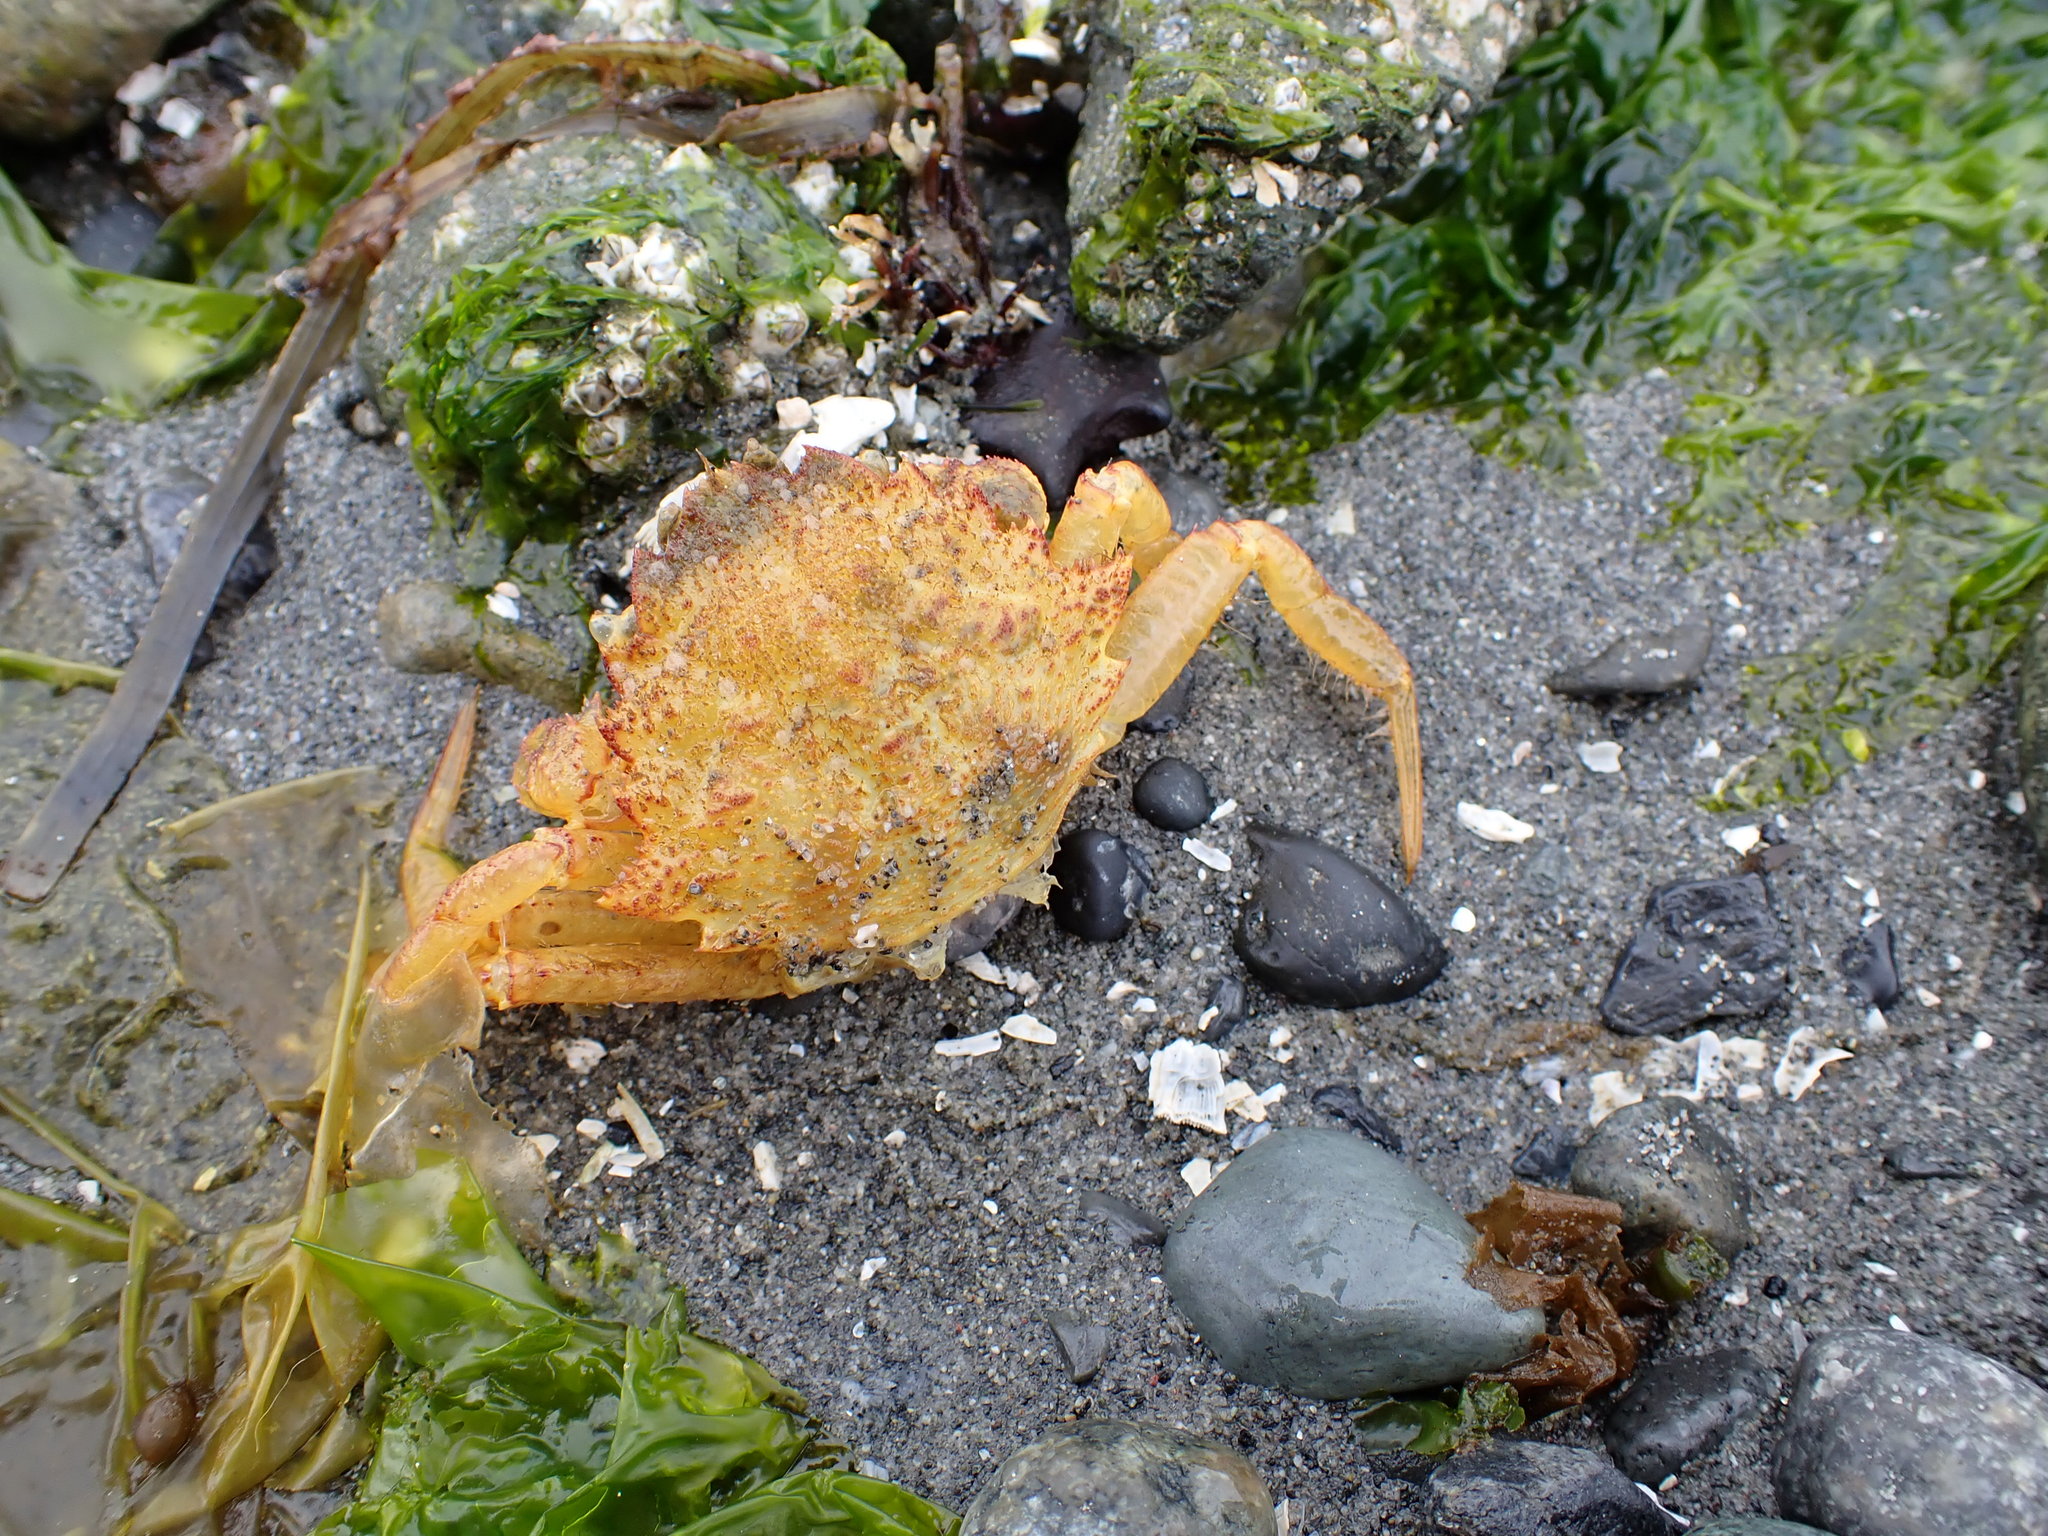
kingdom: Animalia
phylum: Arthropoda
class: Malacostraca
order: Decapoda
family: Cheiragonidae
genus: Telmessus
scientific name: Telmessus cheiragonus
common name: Helmet crab
